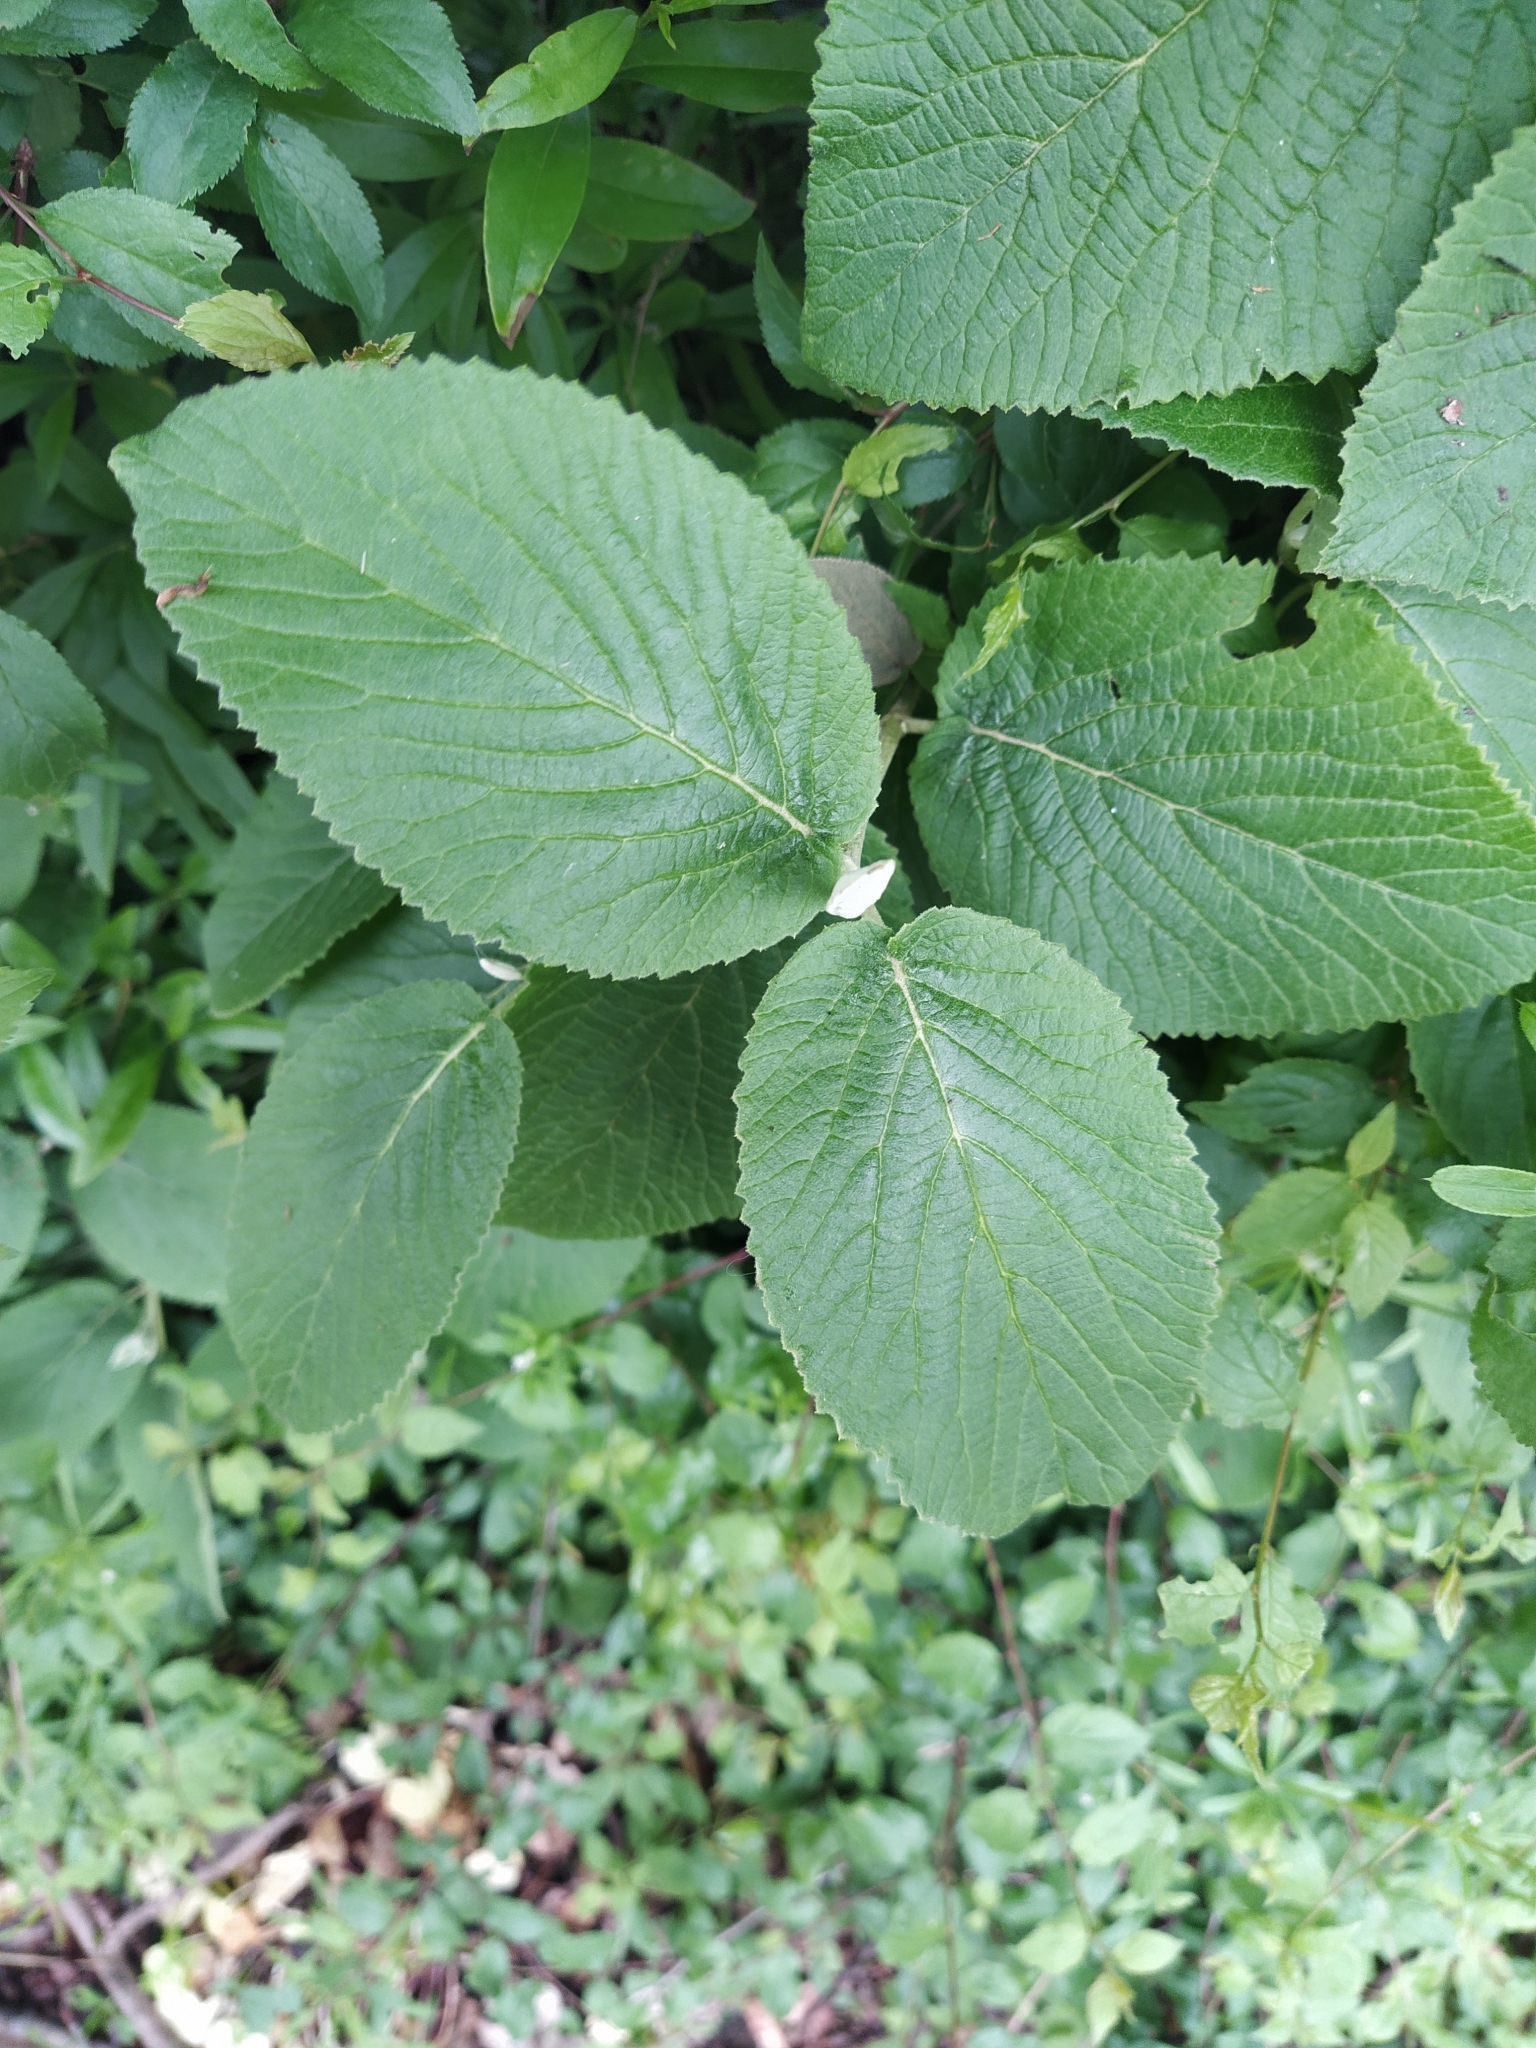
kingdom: Plantae
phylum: Tracheophyta
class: Magnoliopsida
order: Dipsacales
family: Viburnaceae
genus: Viburnum
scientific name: Viburnum lantana
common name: Wayfaring tree
